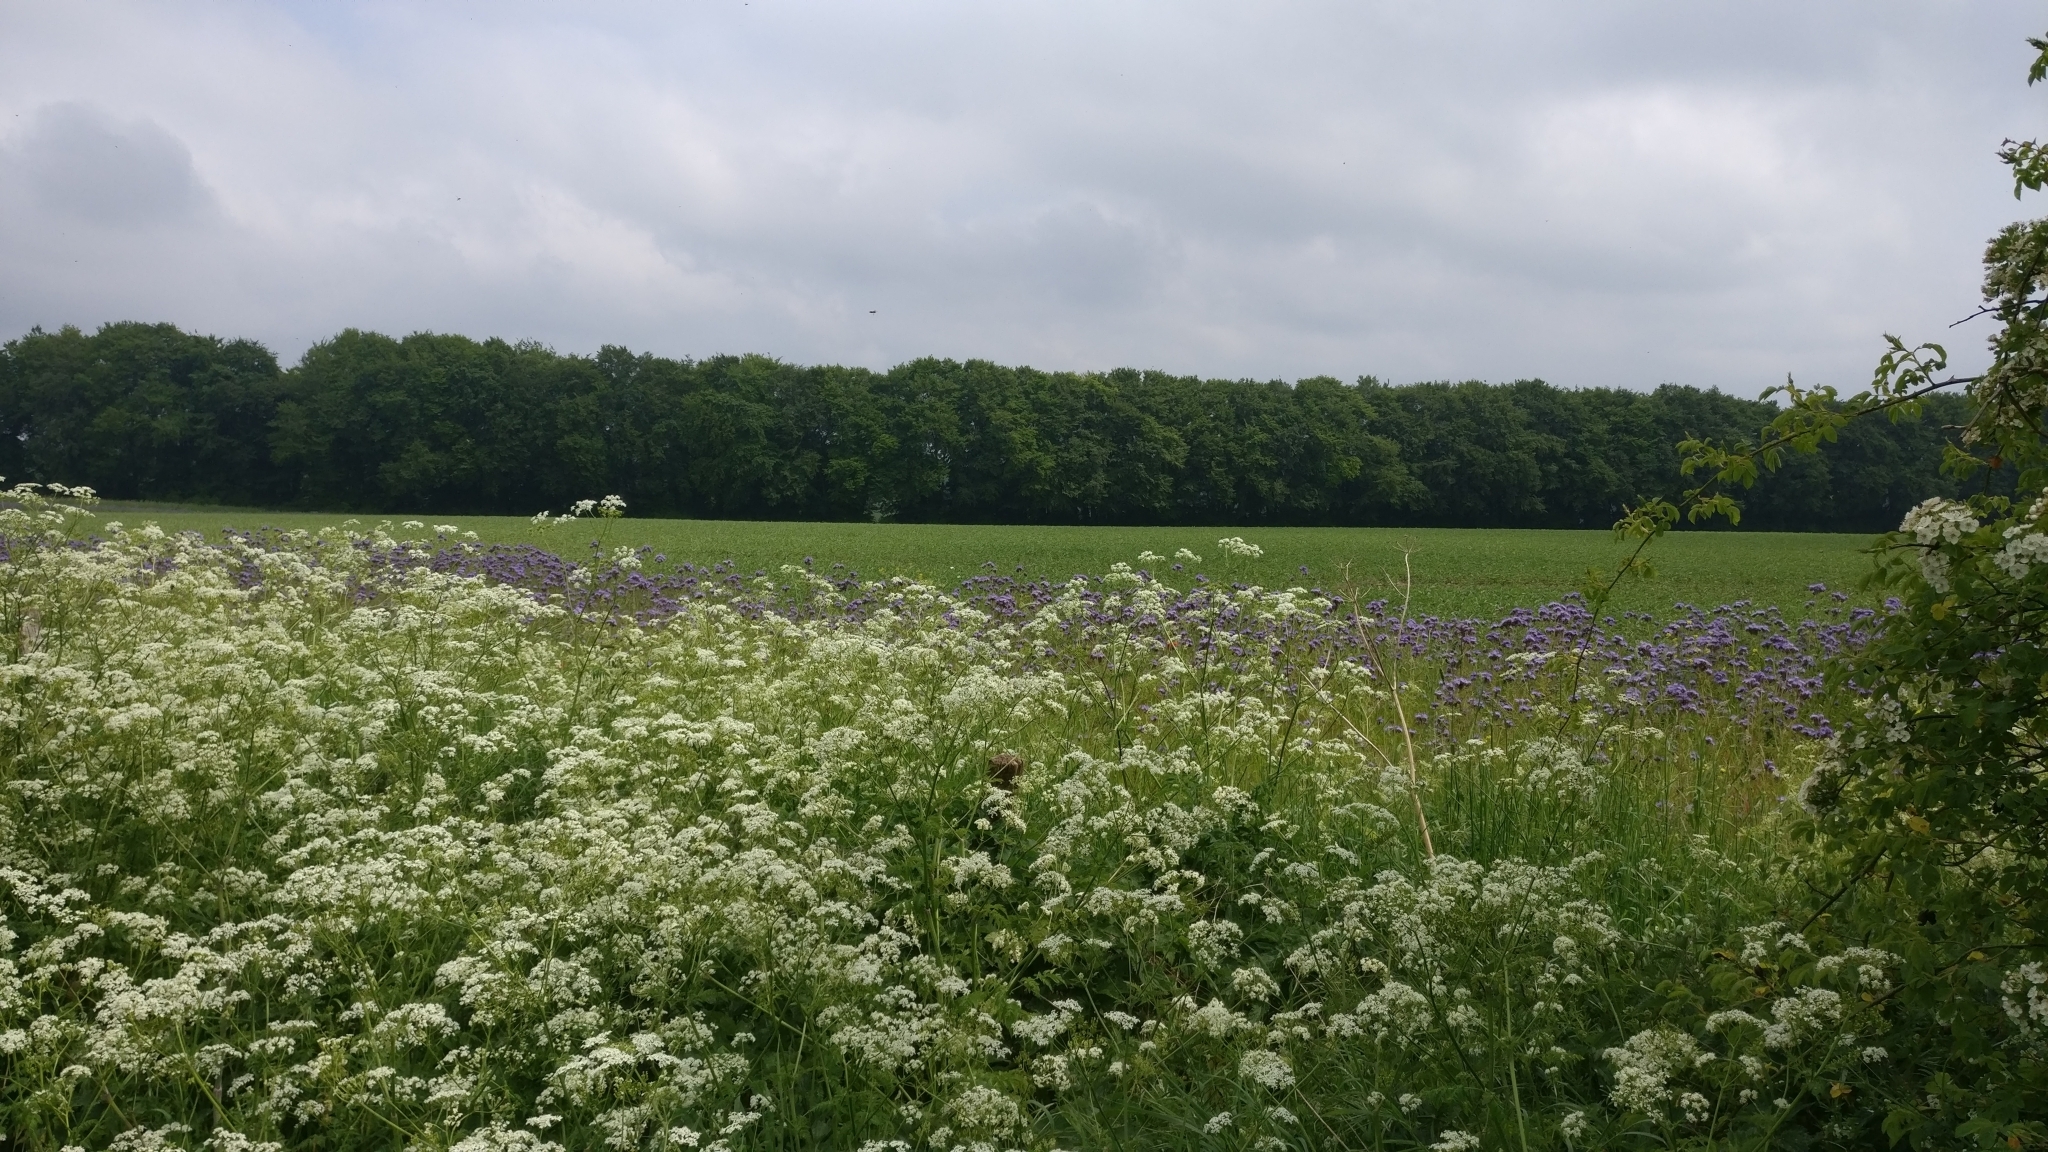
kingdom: Plantae
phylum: Tracheophyta
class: Magnoliopsida
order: Apiales
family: Apiaceae
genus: Anthriscus
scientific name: Anthriscus sylvestris
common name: Cow parsley
